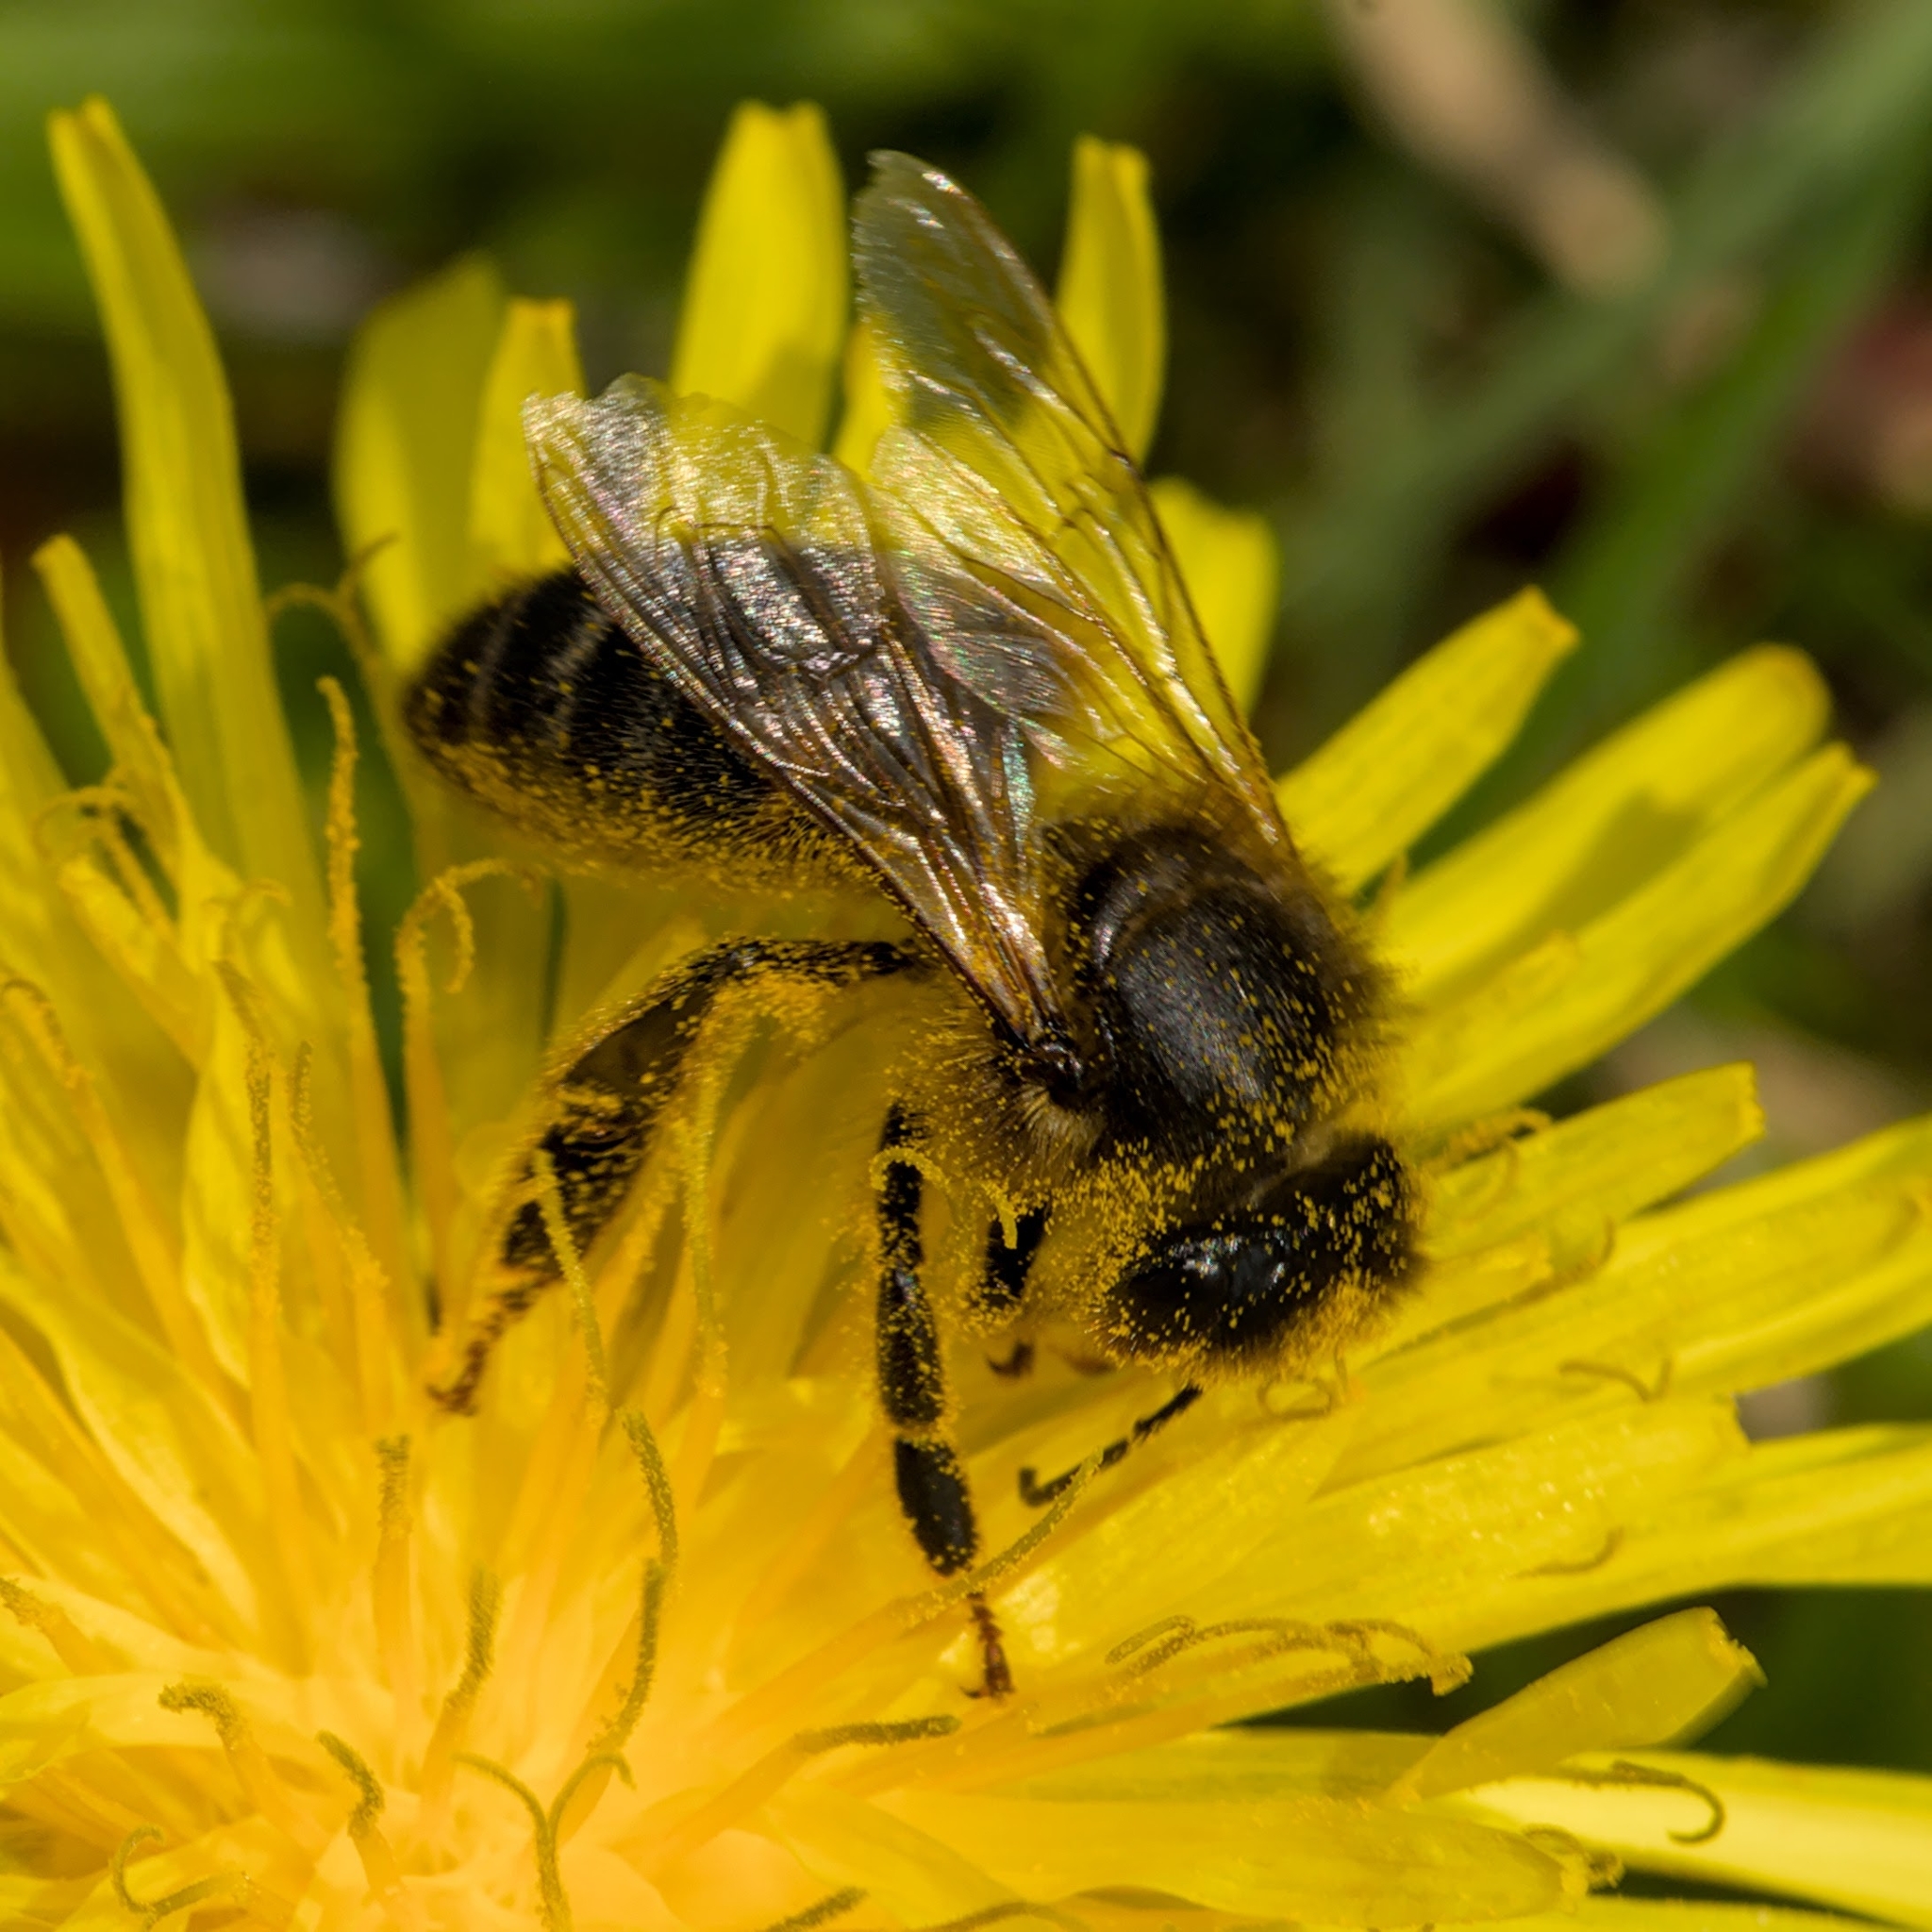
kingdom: Animalia
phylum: Arthropoda
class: Insecta
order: Hymenoptera
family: Apidae
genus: Apis
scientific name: Apis mellifera
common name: Honey bee
